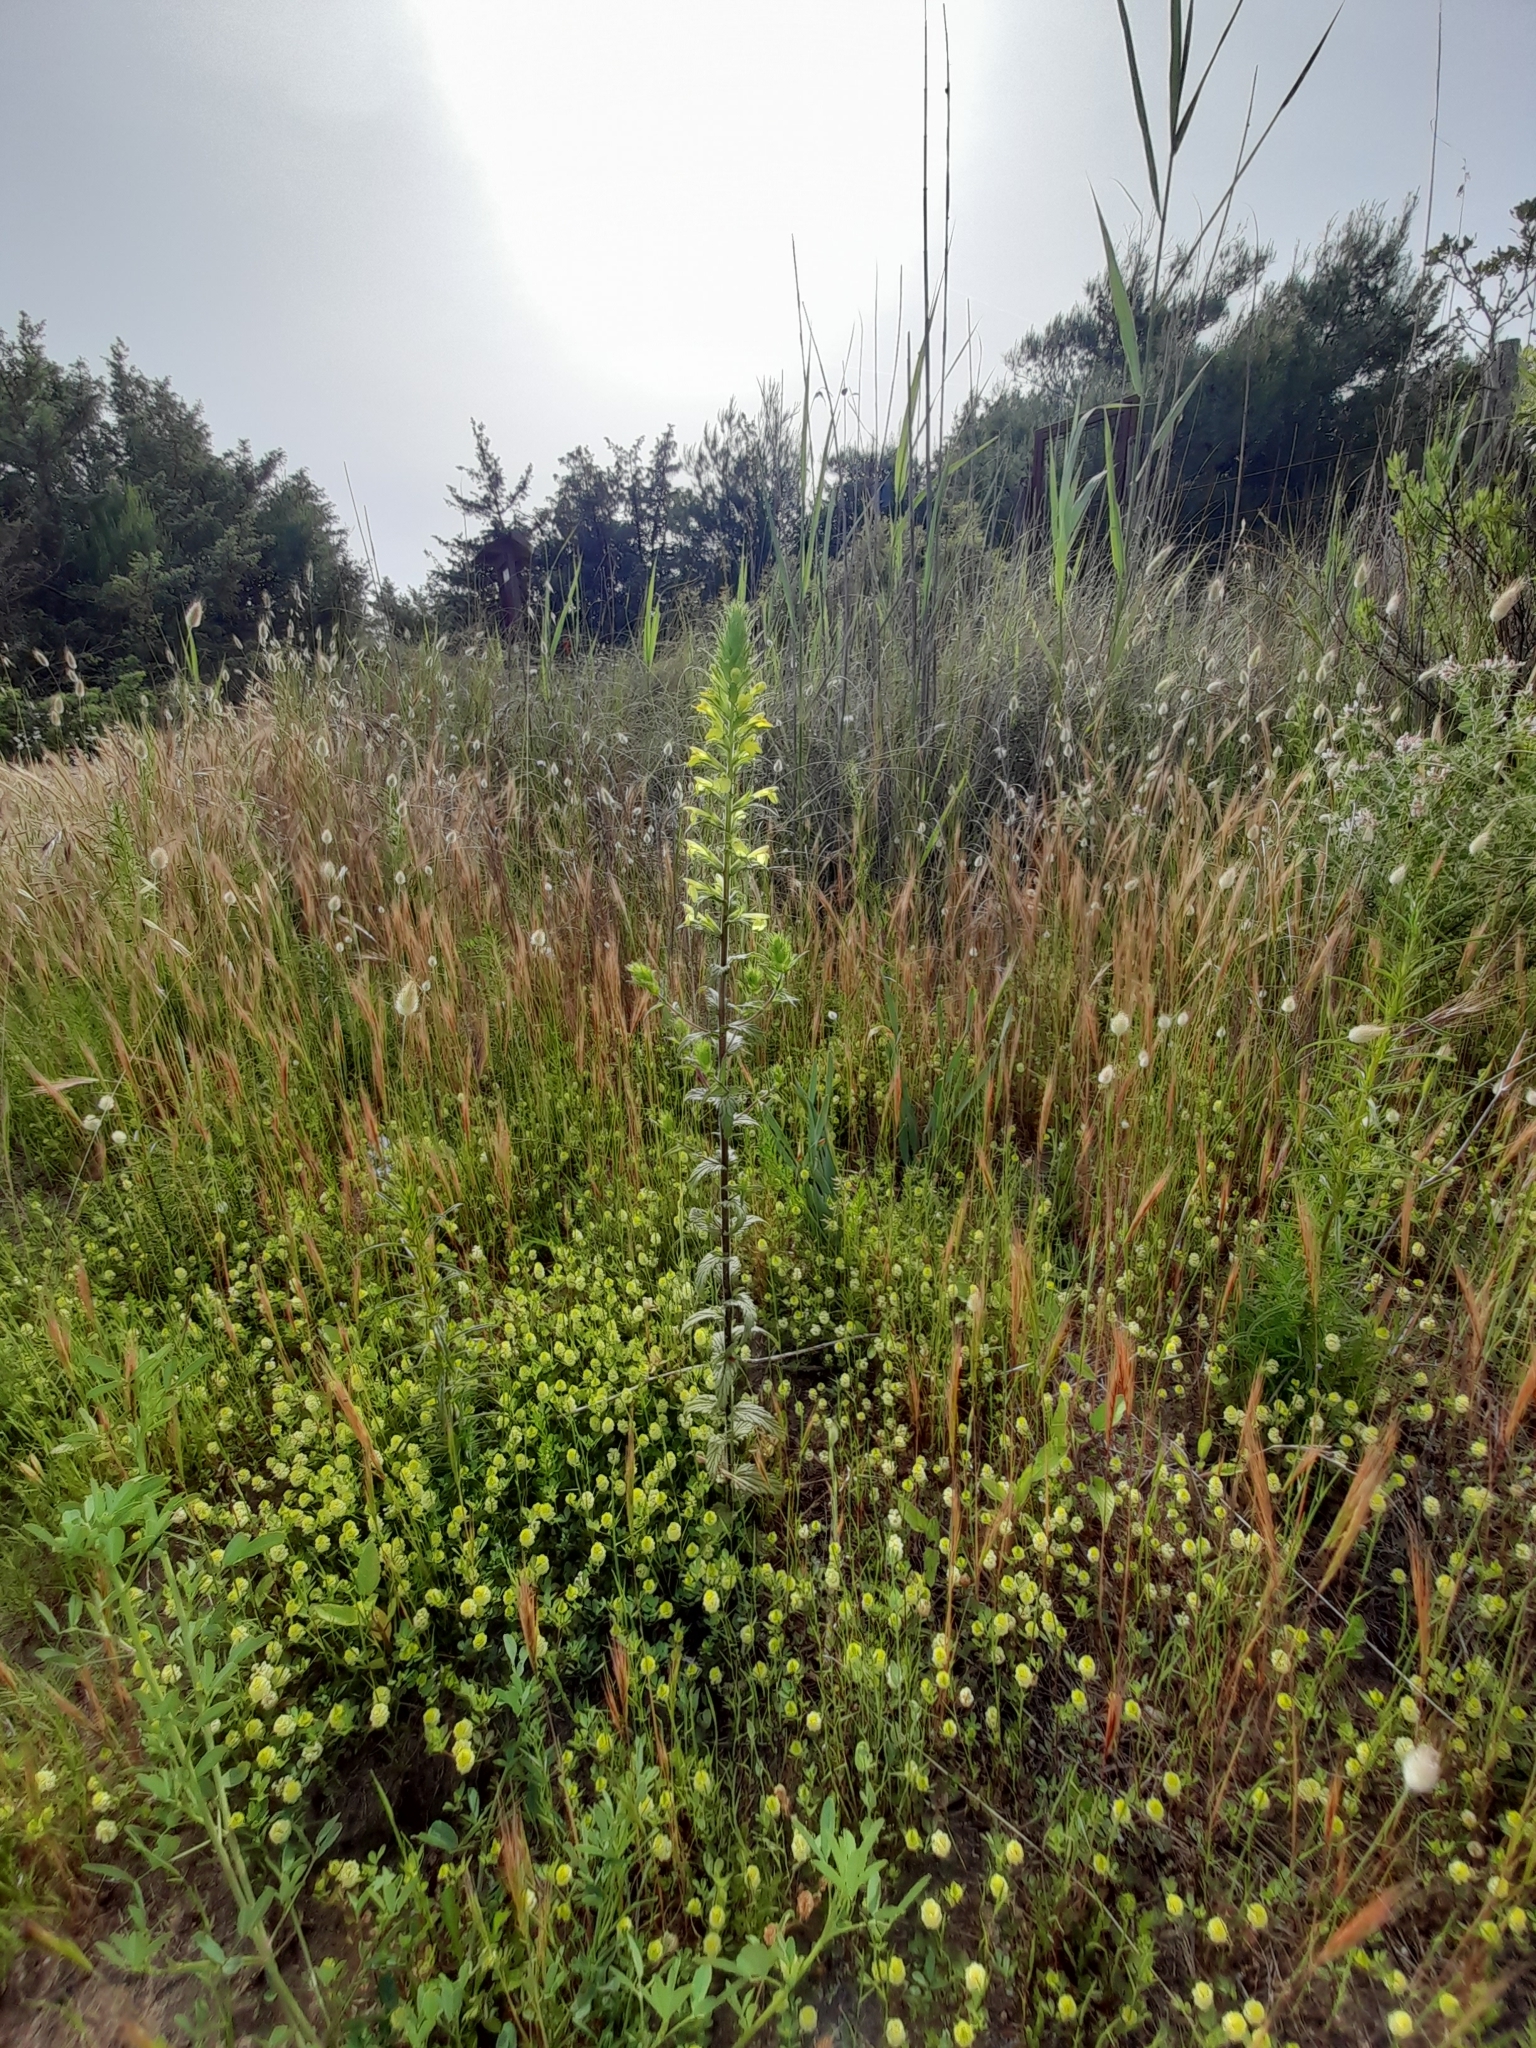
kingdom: Plantae
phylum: Tracheophyta
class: Magnoliopsida
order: Lamiales
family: Orobanchaceae
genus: Bellardia
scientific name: Bellardia viscosa
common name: Sticky parentucellia
